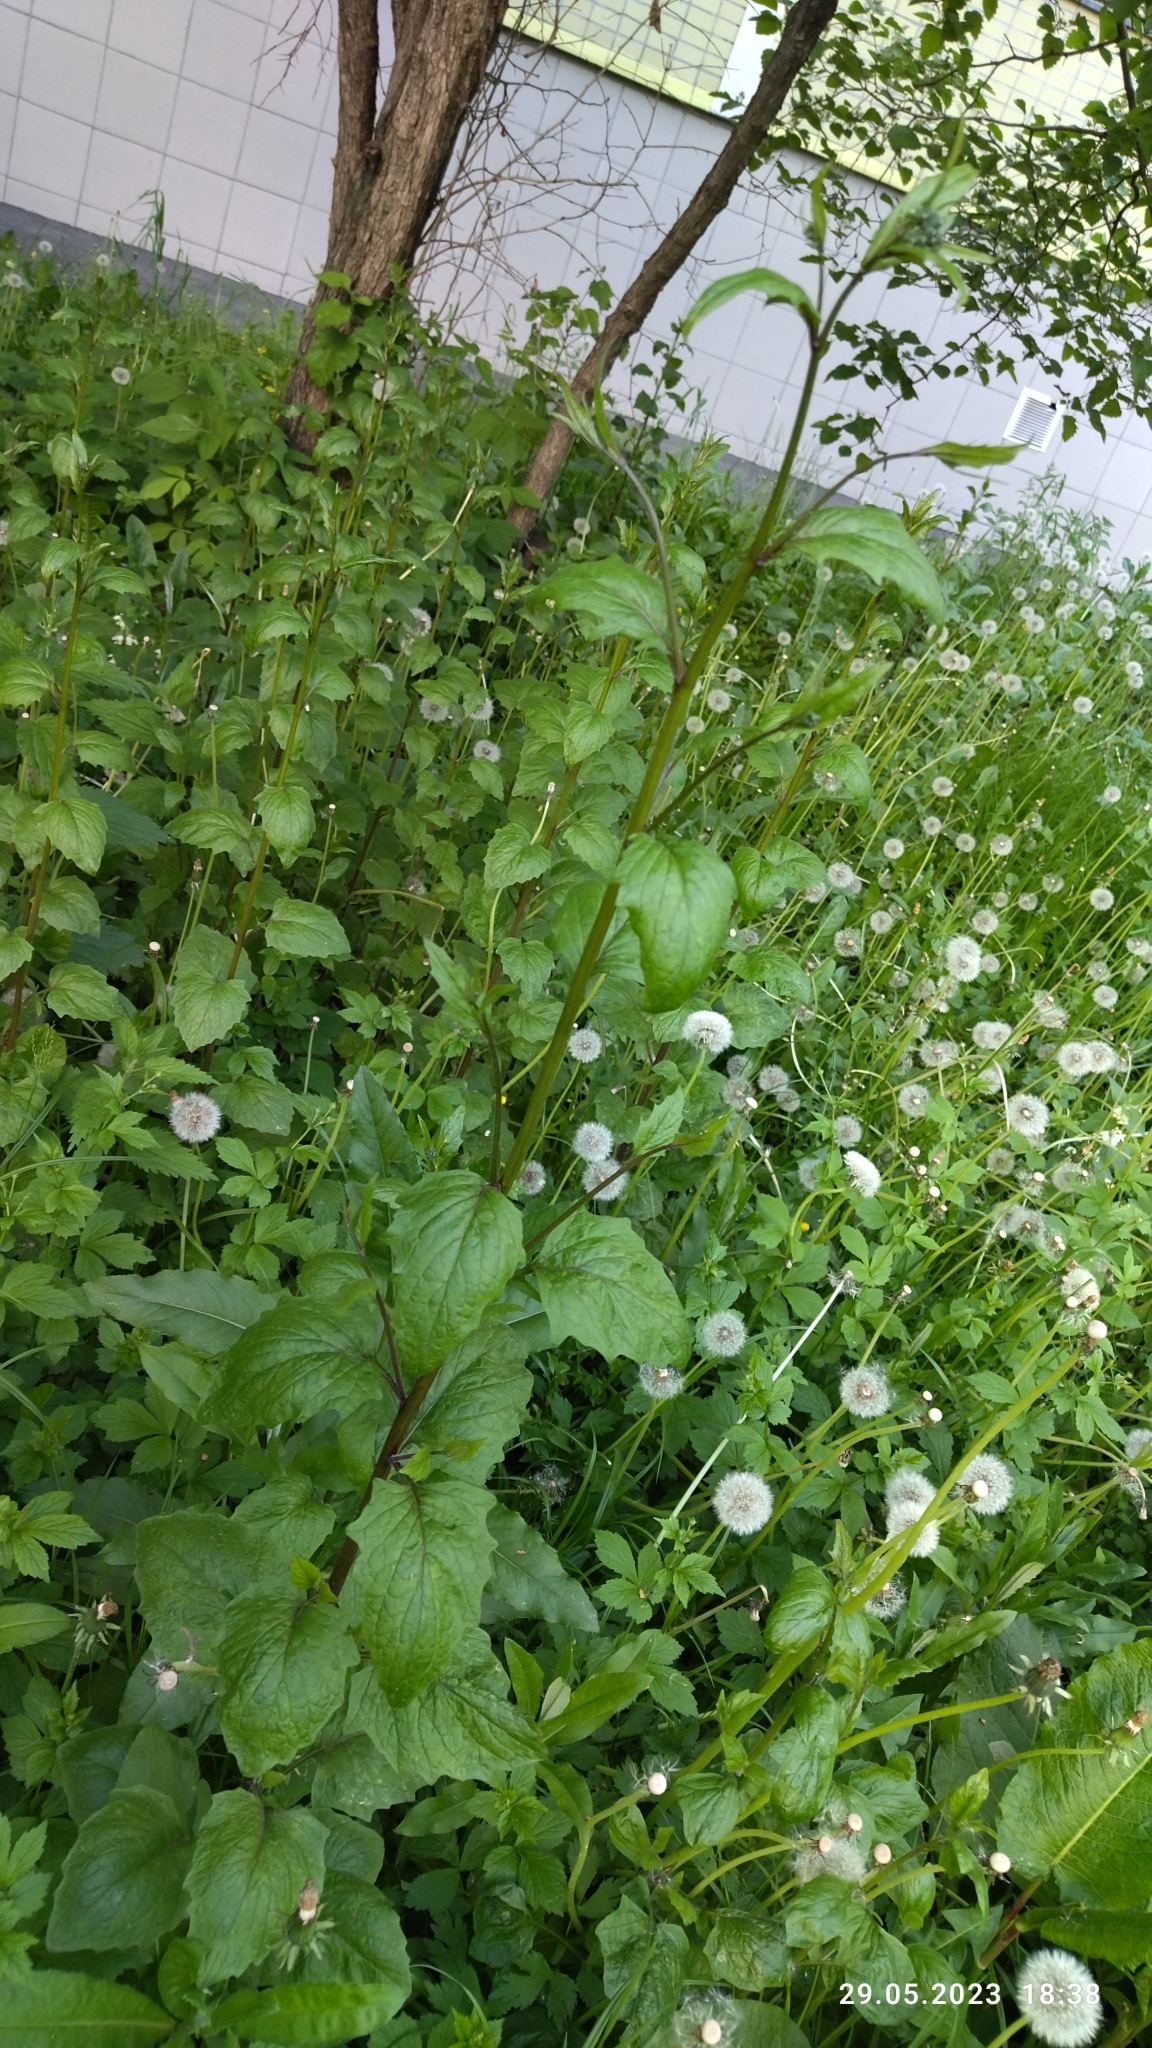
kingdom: Plantae
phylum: Tracheophyta
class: Magnoliopsida
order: Asterales
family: Asteraceae
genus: Lapsana
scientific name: Lapsana communis
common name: Nipplewort
